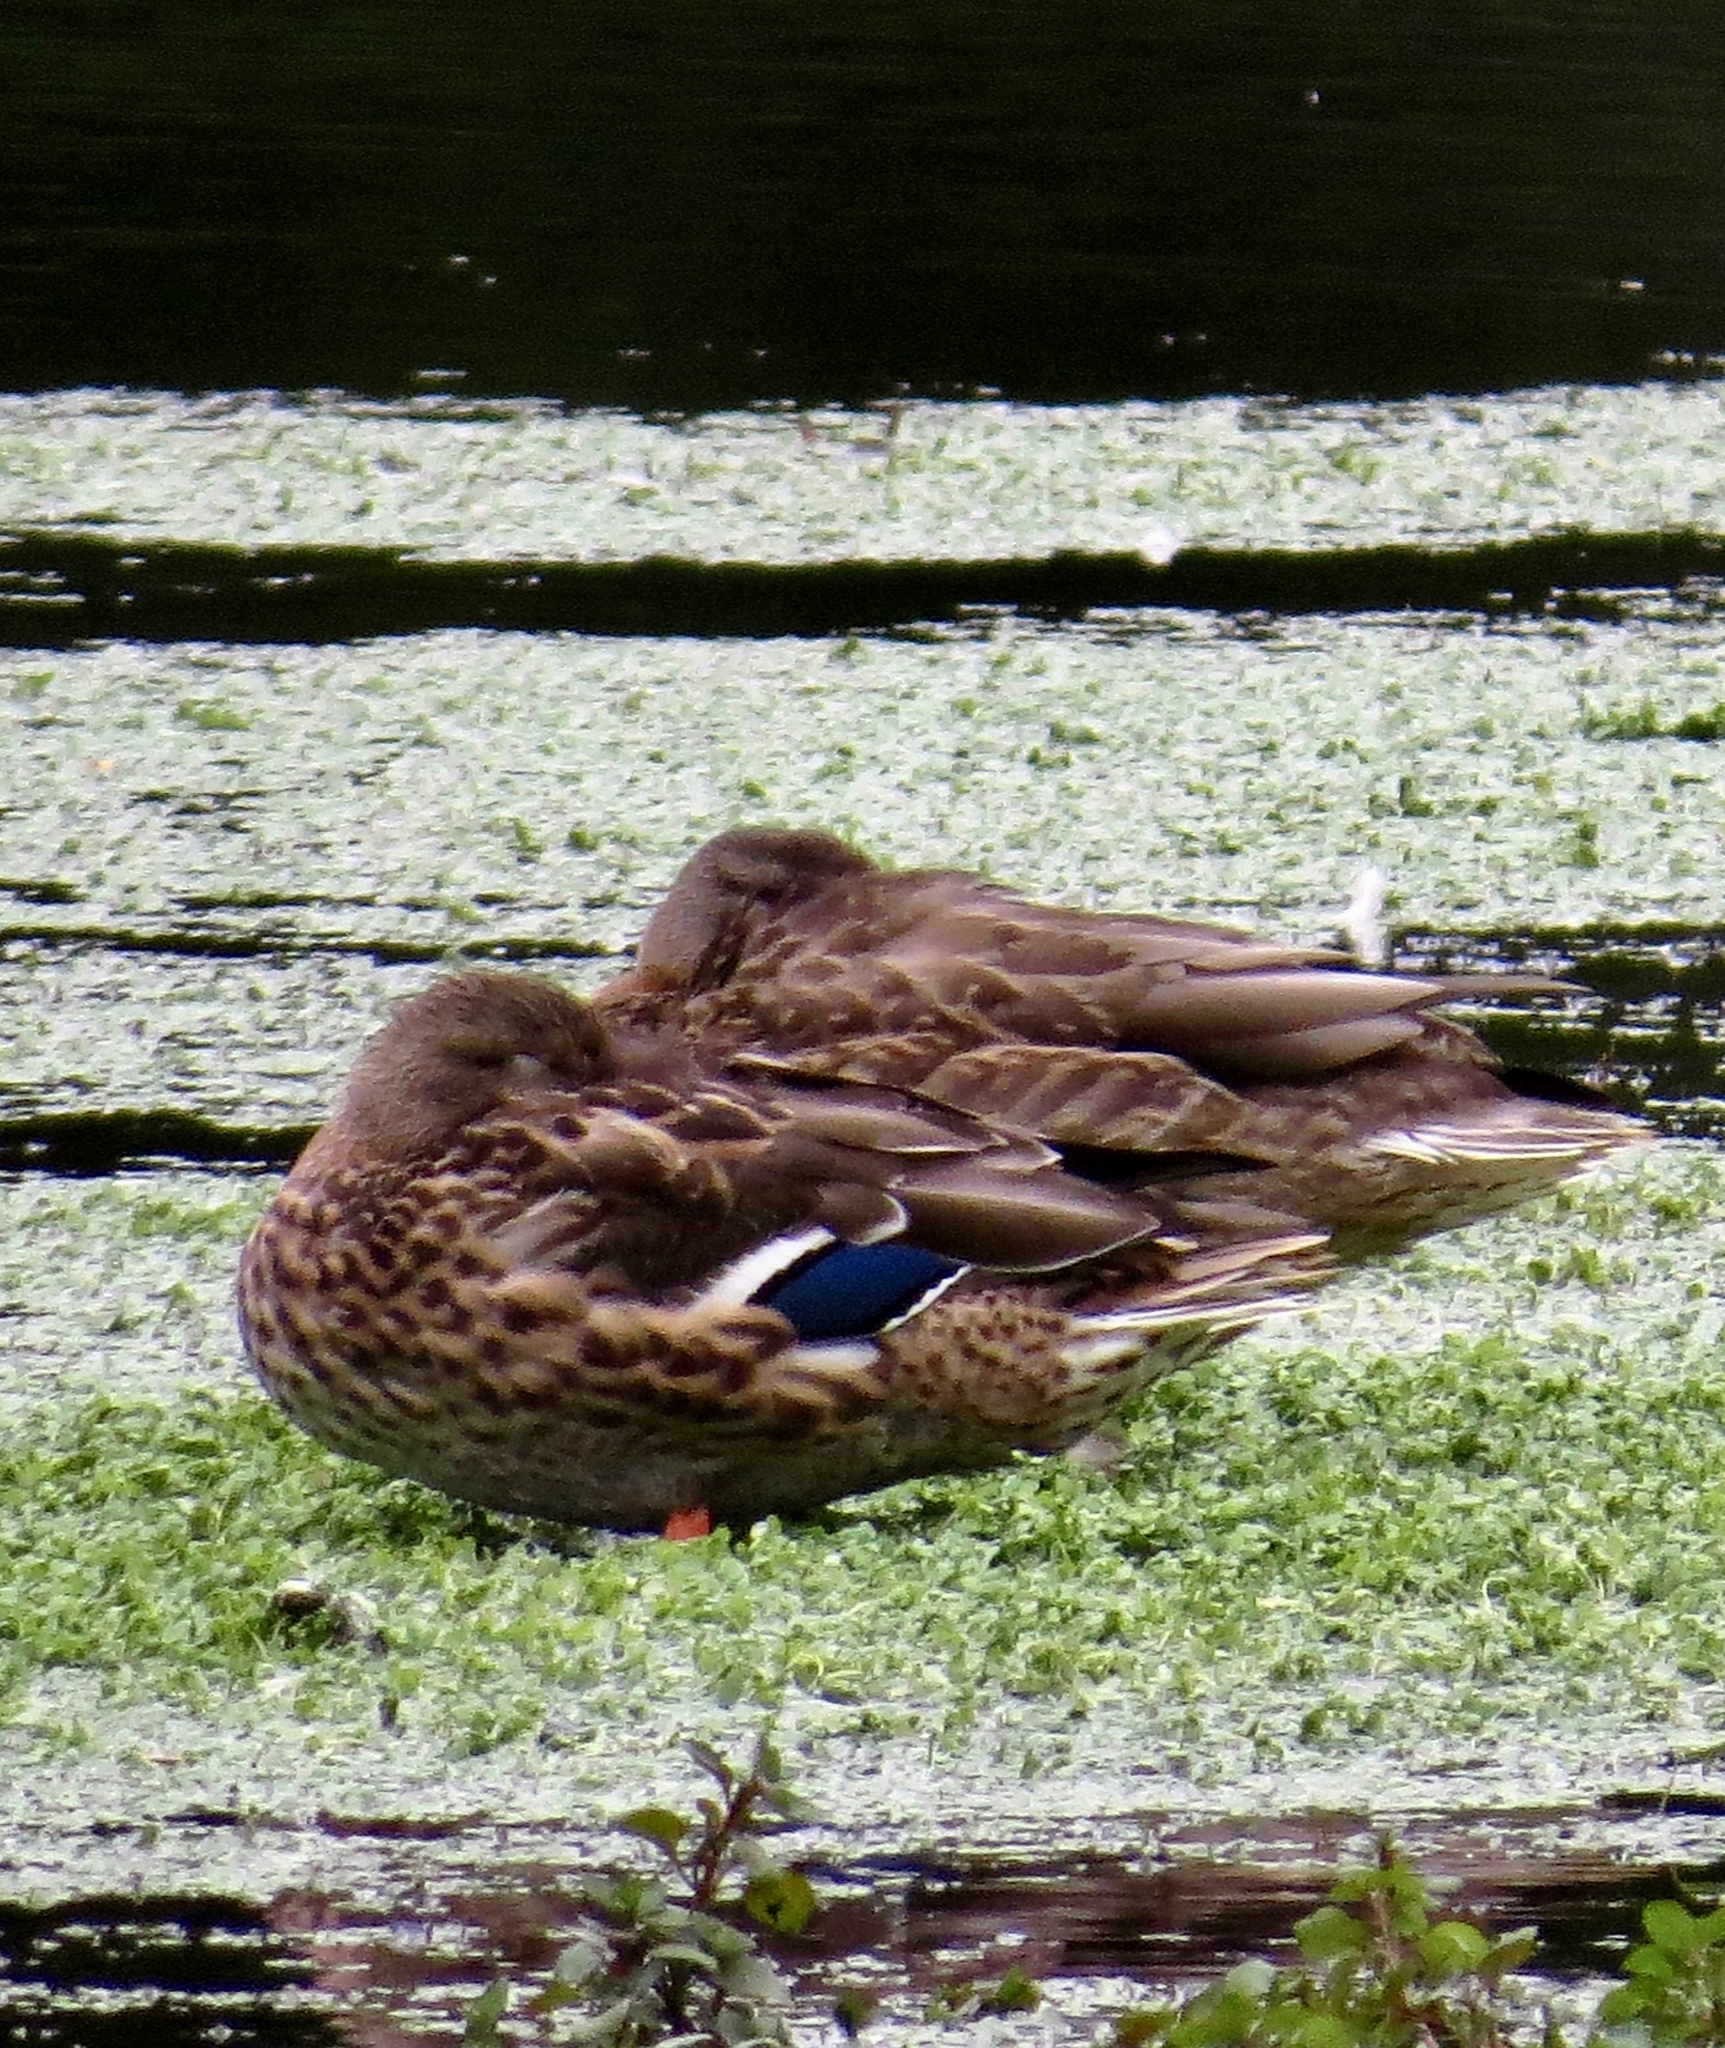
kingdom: Animalia
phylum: Chordata
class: Aves
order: Anseriformes
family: Anatidae
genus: Anas
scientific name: Anas platyrhynchos
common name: Mallard
